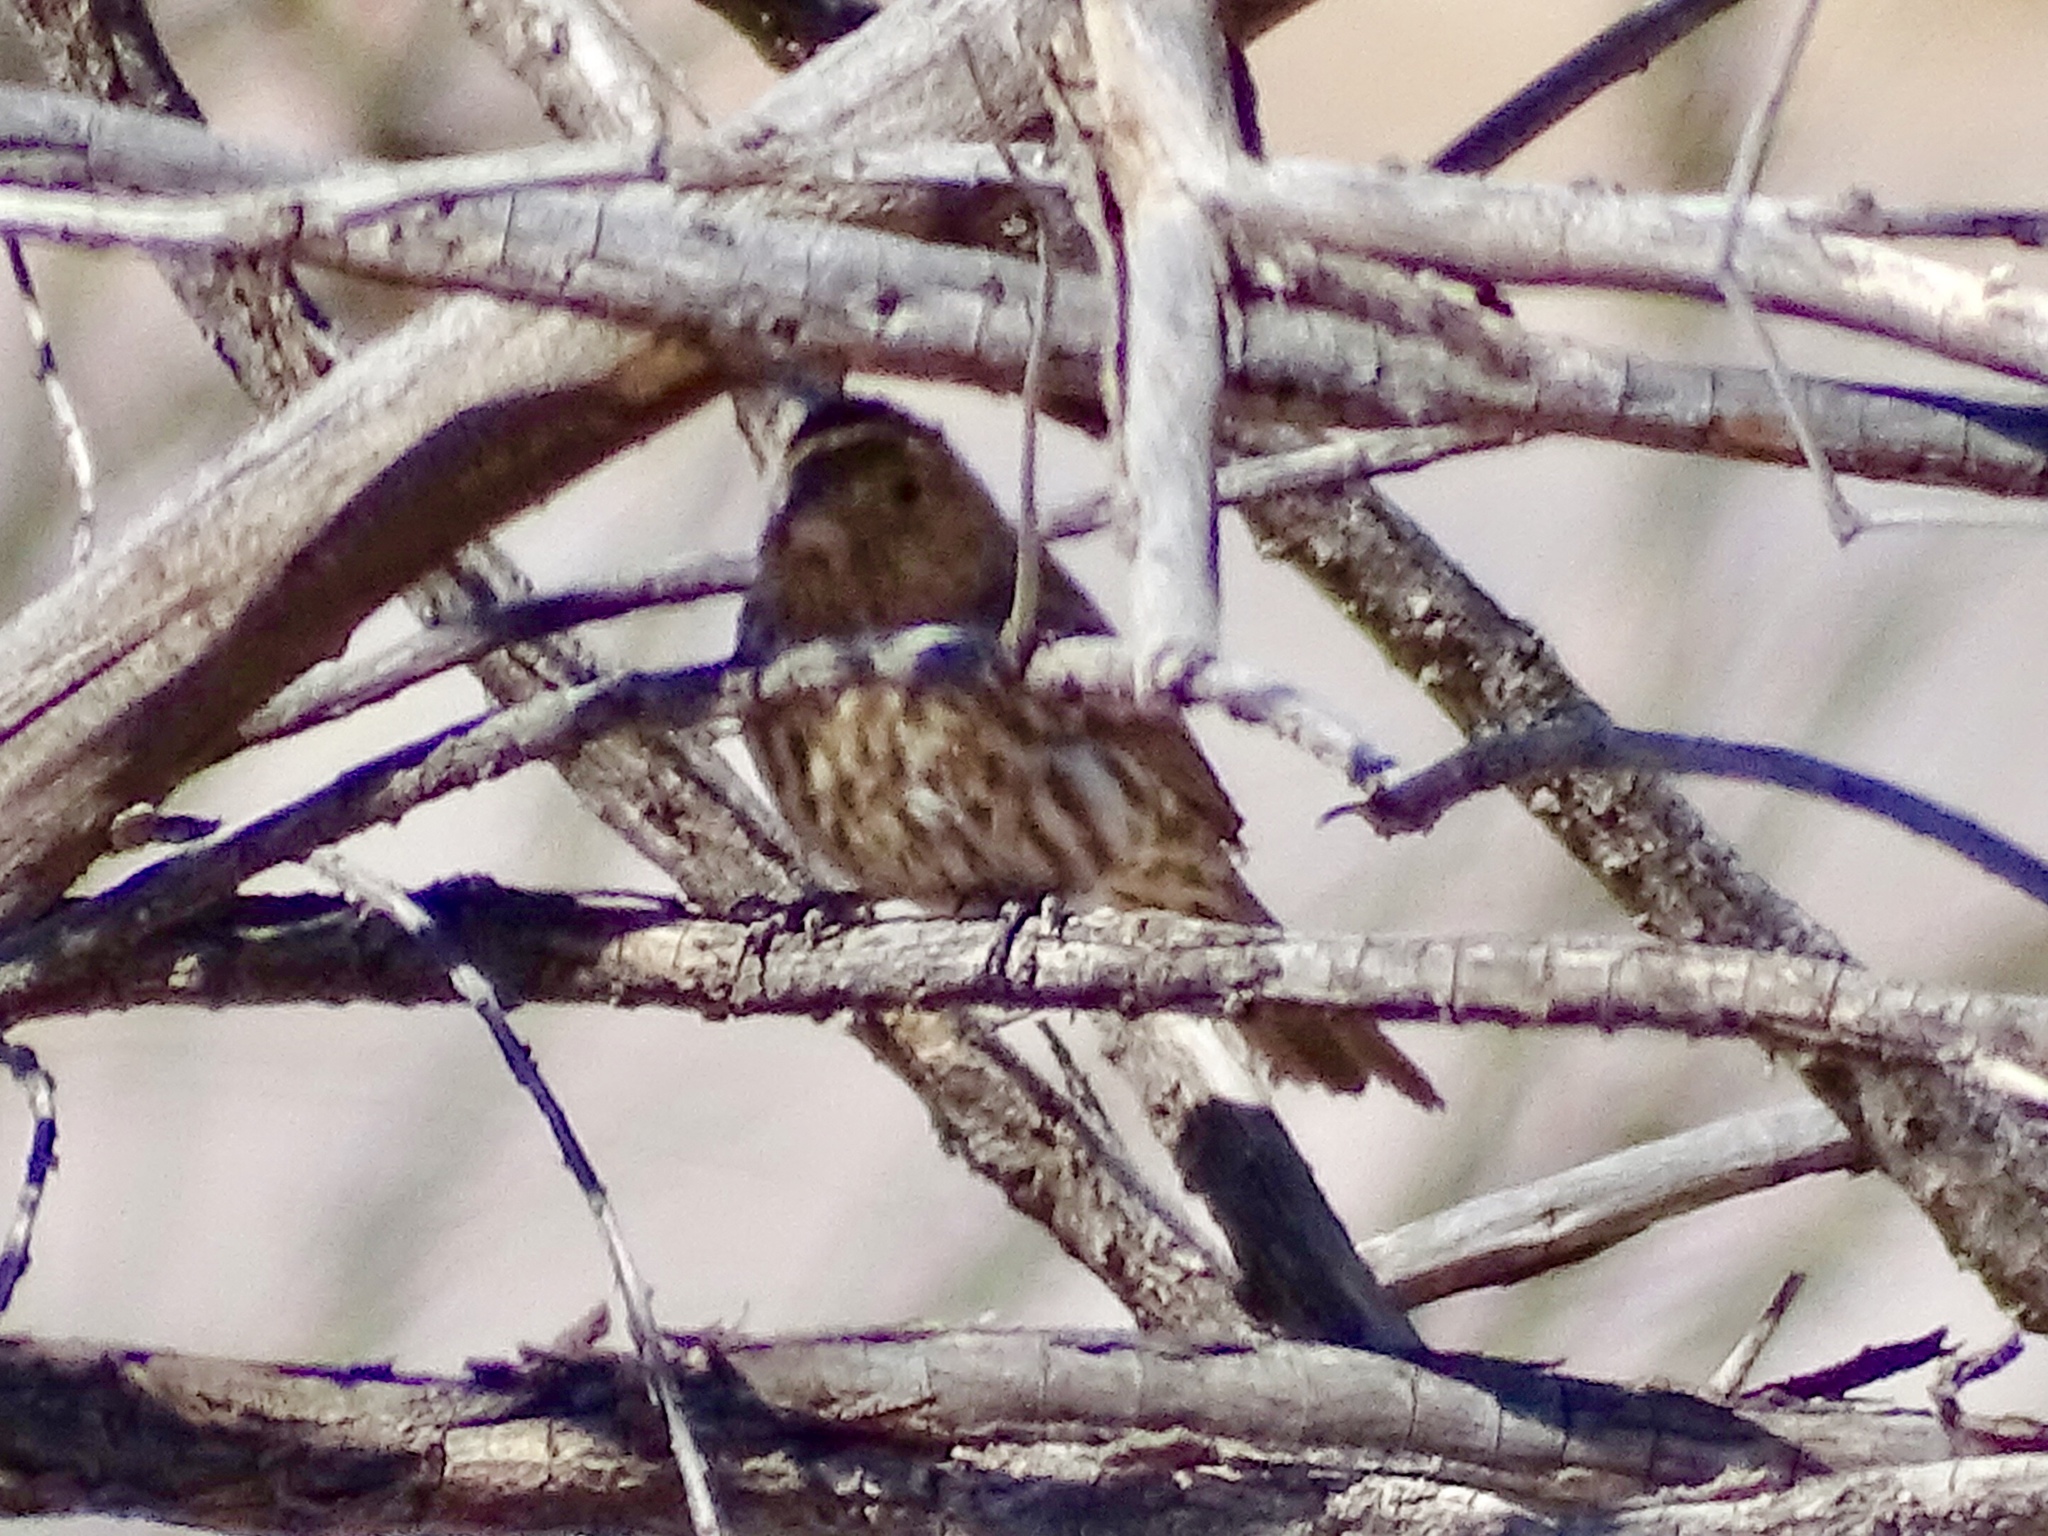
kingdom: Animalia
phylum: Chordata
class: Aves
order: Passeriformes
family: Fringillidae
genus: Haemorhous
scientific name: Haemorhous mexicanus
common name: House finch
